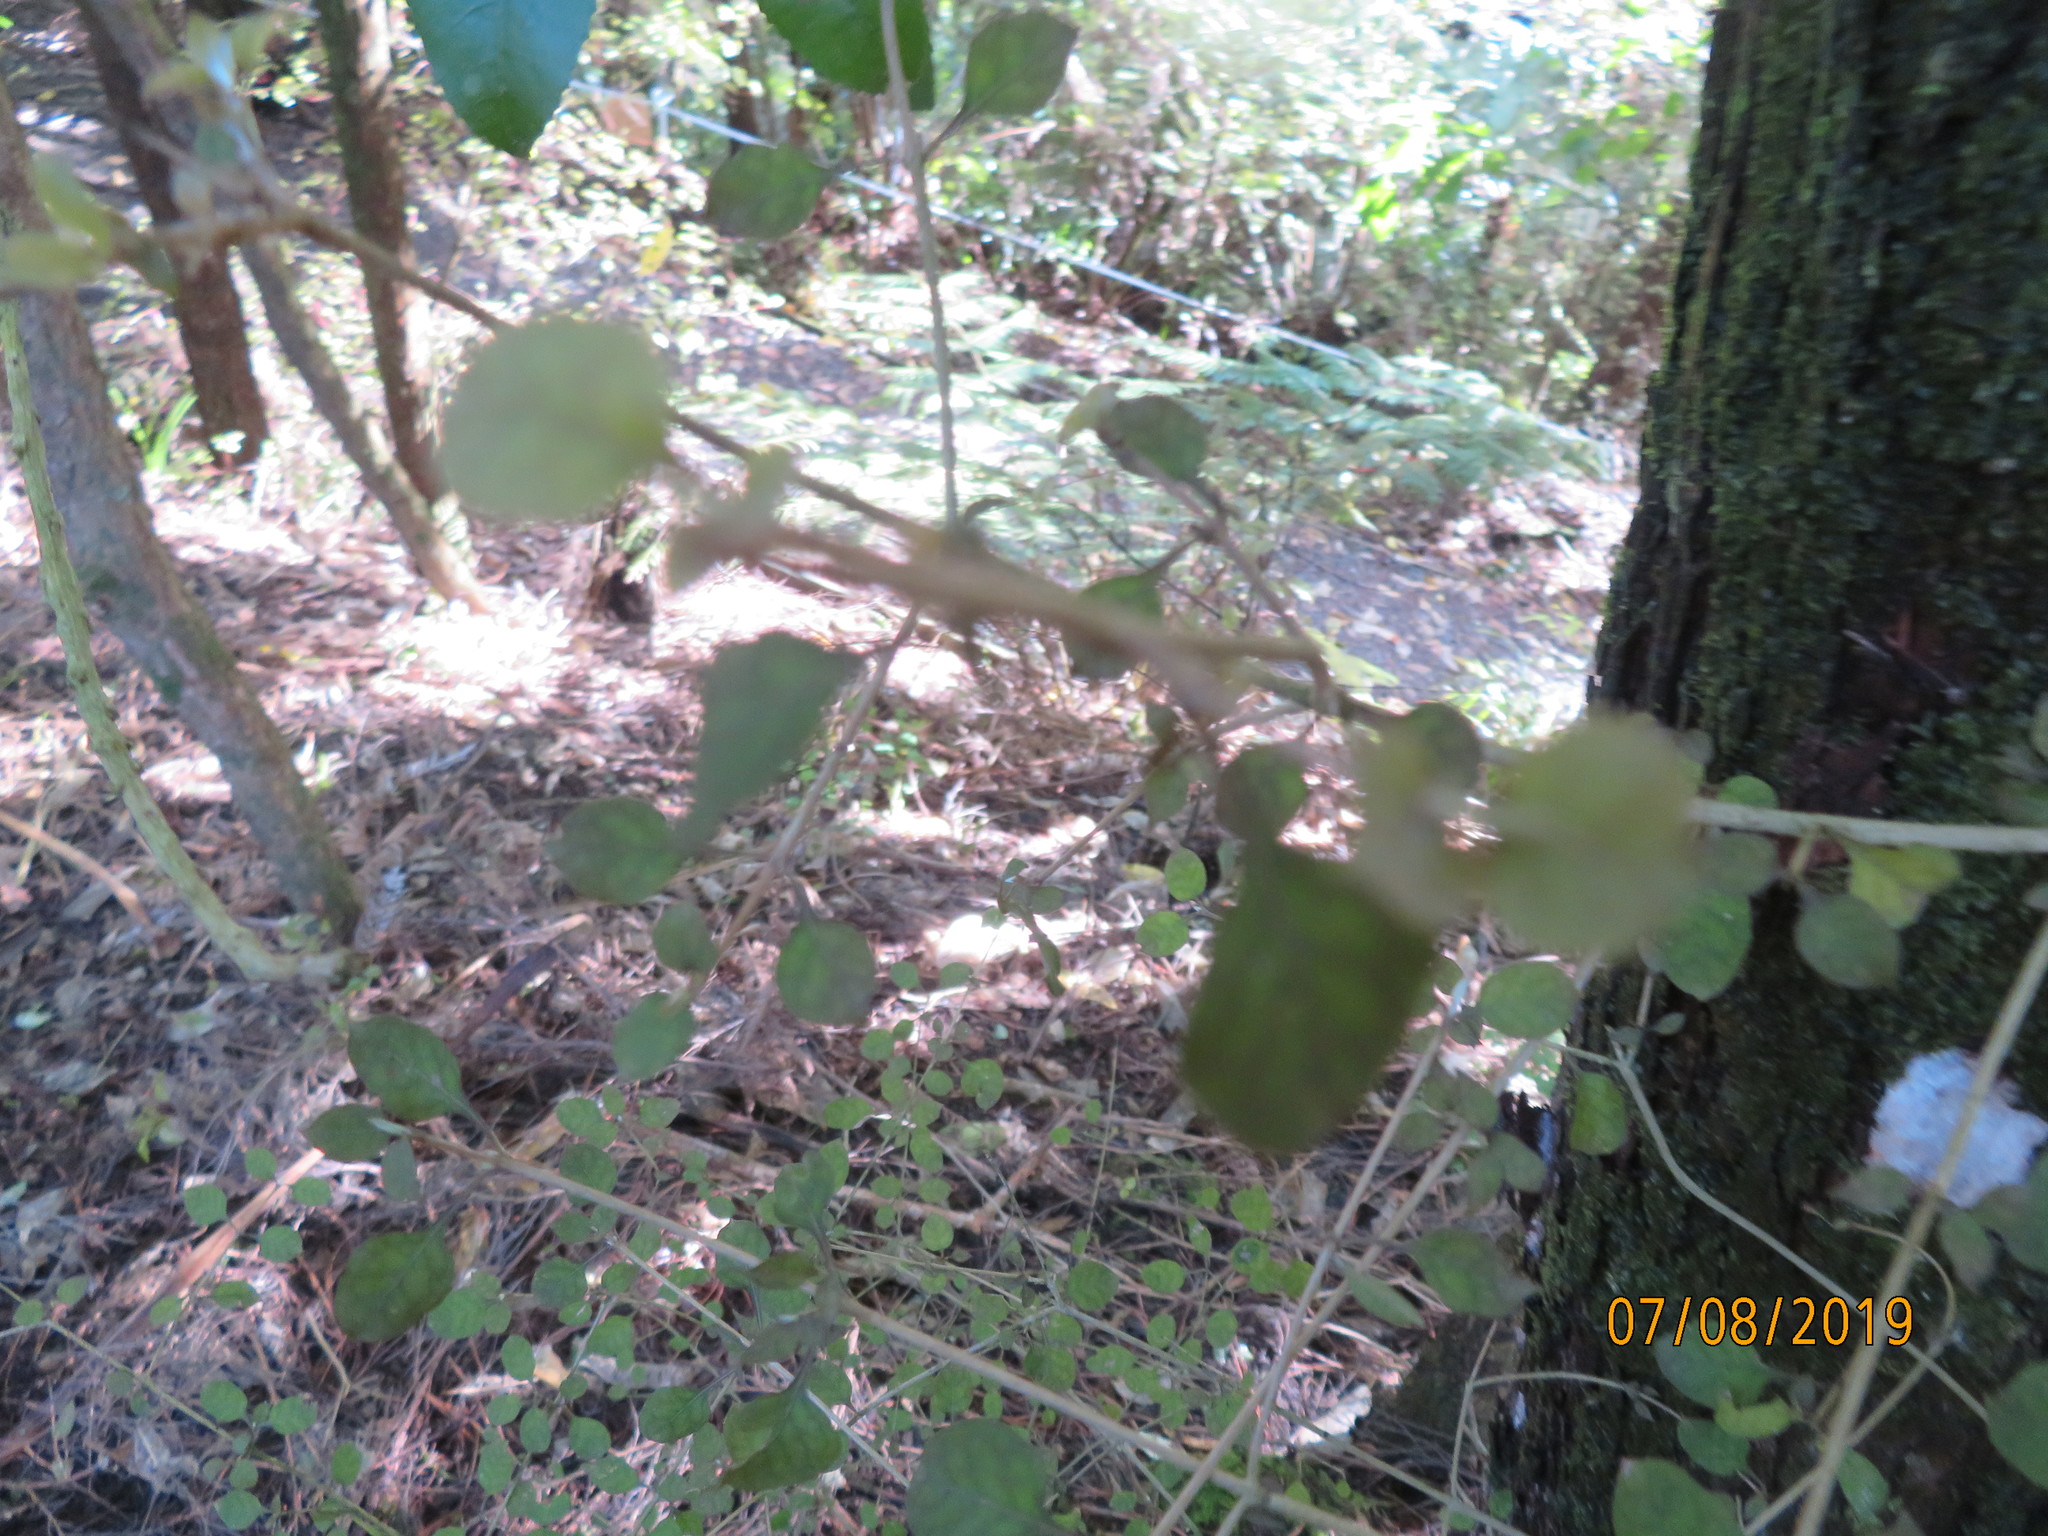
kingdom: Plantae
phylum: Tracheophyta
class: Magnoliopsida
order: Gentianales
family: Rubiaceae
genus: Coprosma
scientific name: Coprosma areolata
